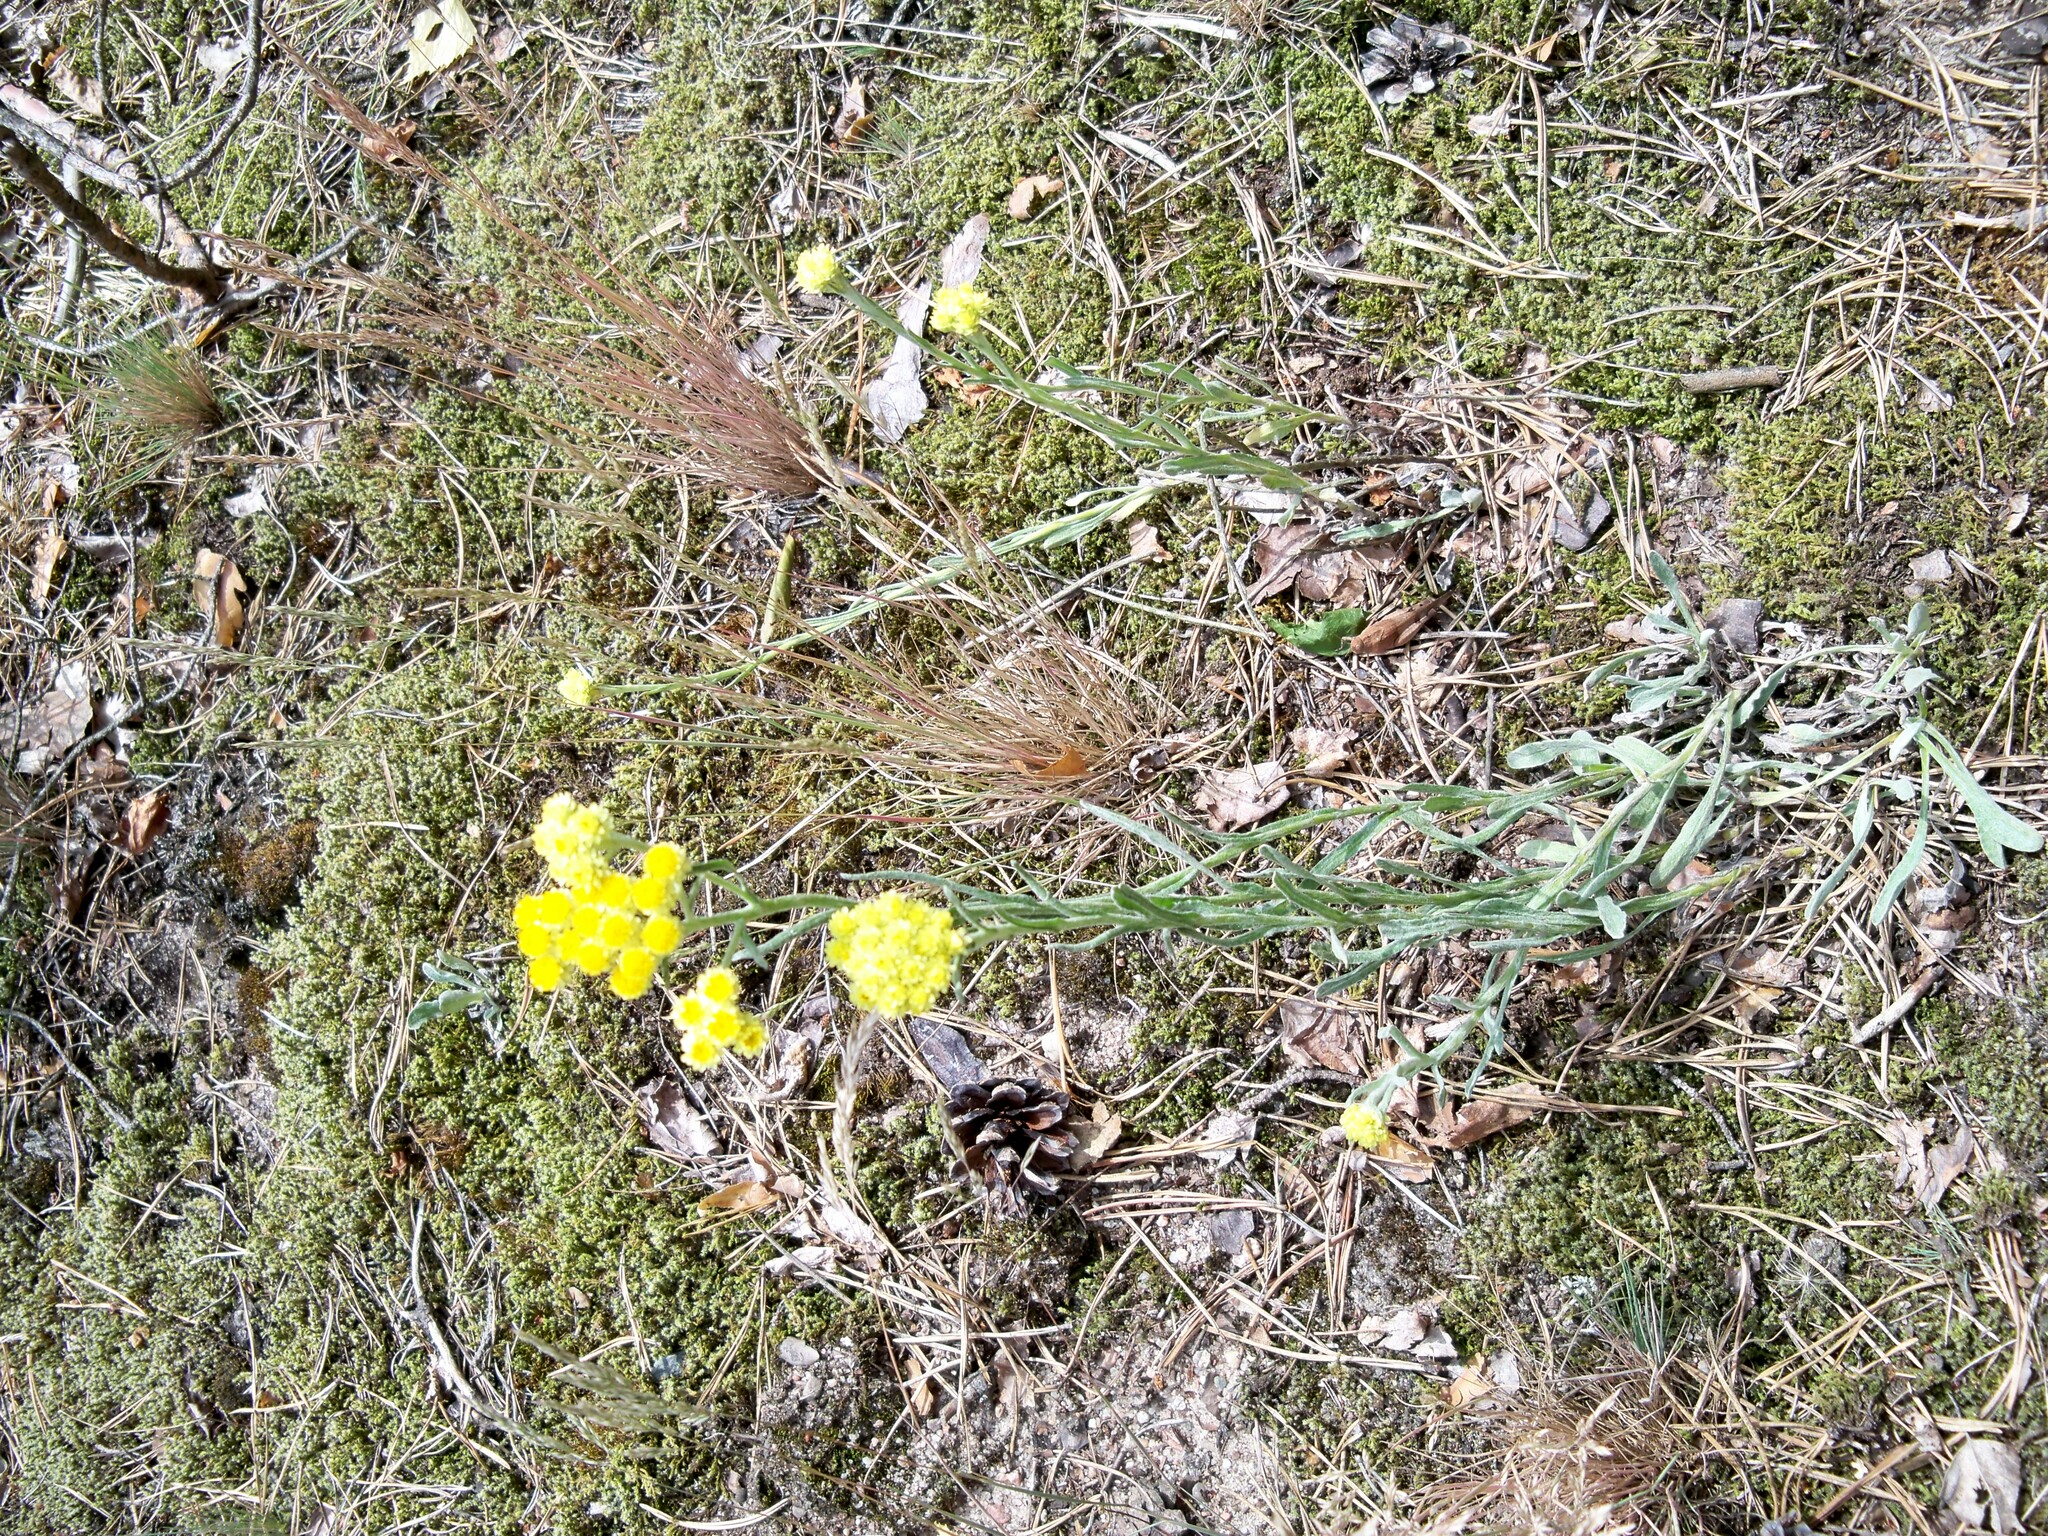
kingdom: Plantae
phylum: Tracheophyta
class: Magnoliopsida
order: Asterales
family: Asteraceae
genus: Helichrysum
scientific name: Helichrysum arenarium
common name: Strawflower
